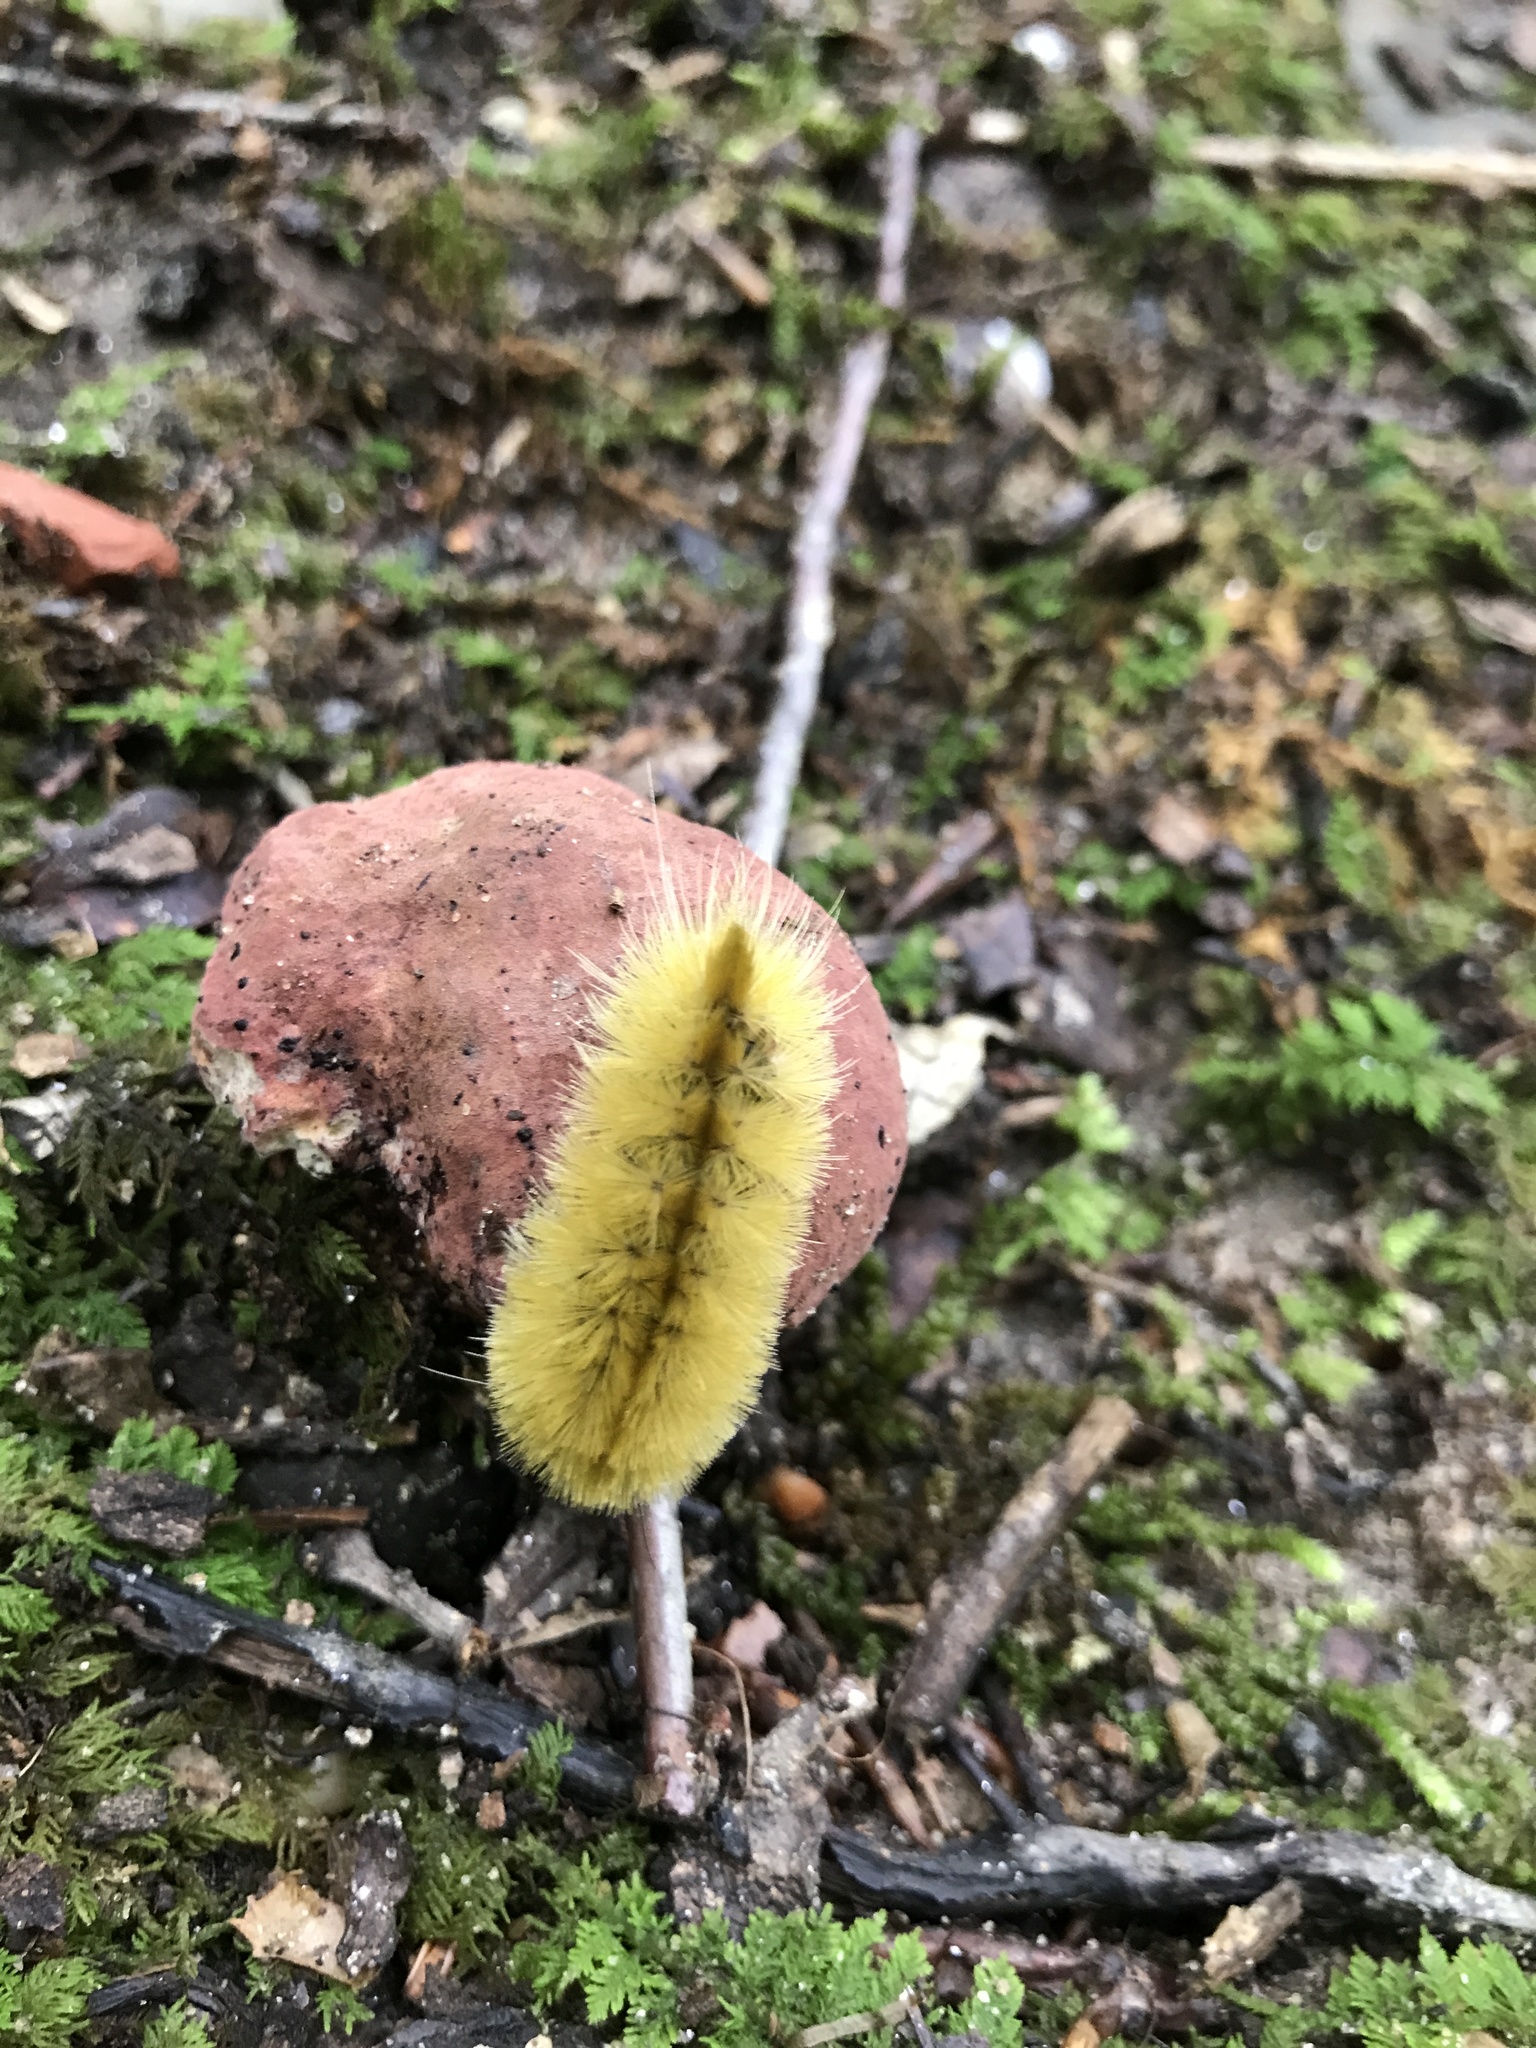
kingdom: Animalia
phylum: Arthropoda
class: Insecta
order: Lepidoptera
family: Erebidae
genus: Halysidota
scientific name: Halysidota tessellaris
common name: Banded tussock moth
